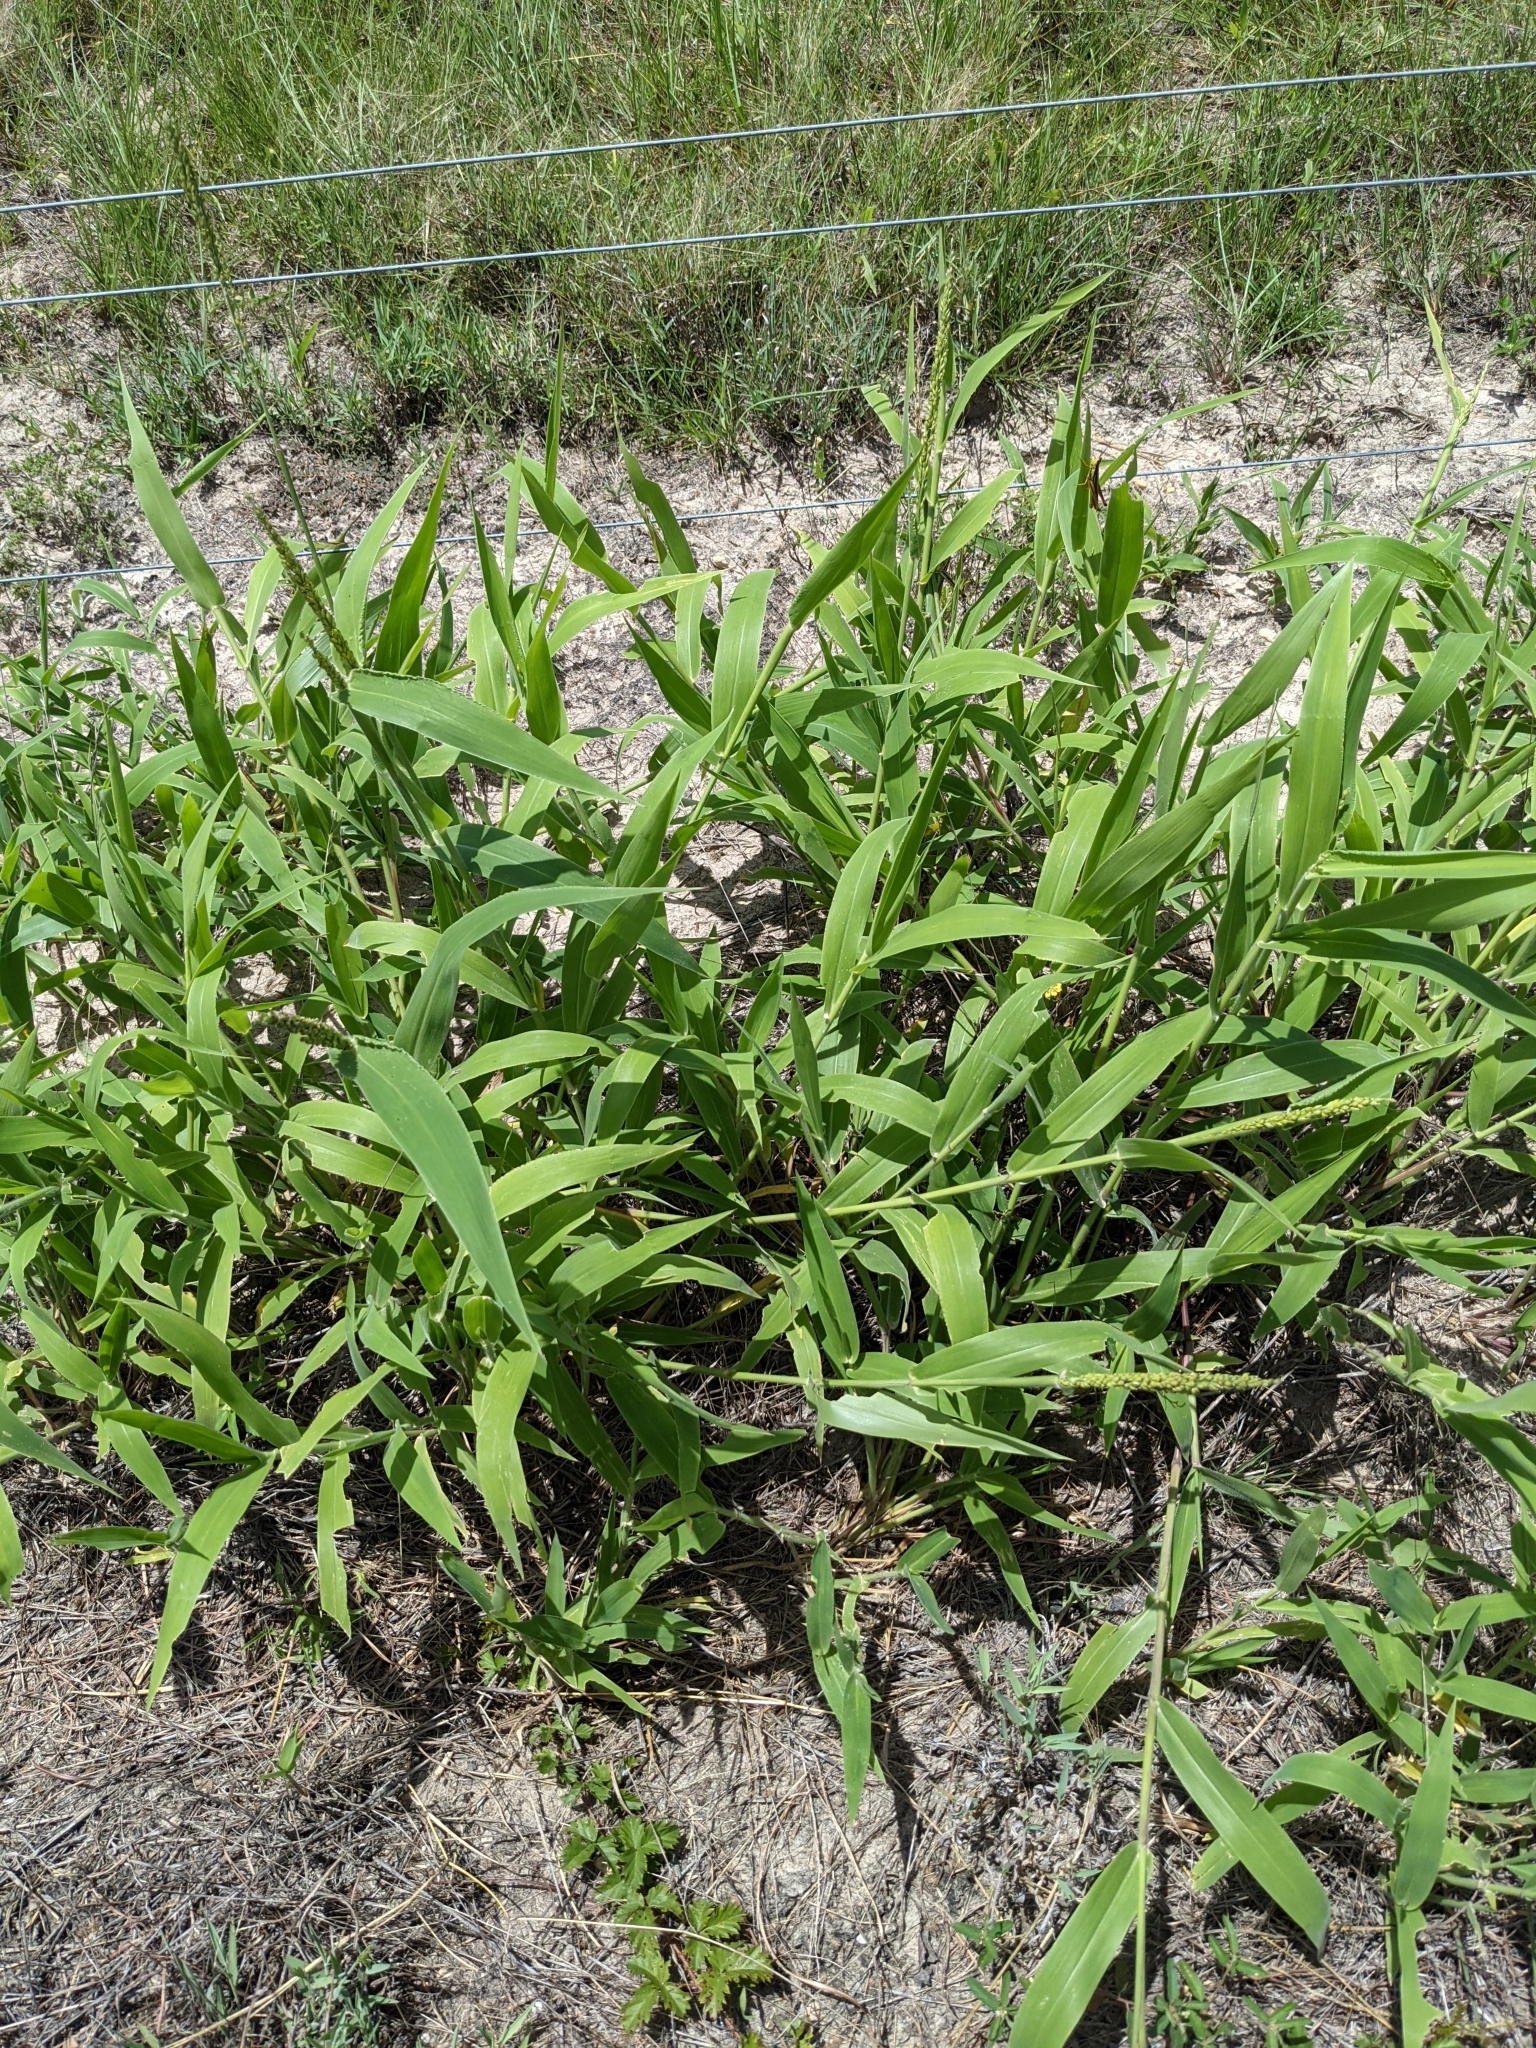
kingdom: Plantae
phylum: Tracheophyta
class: Liliopsida
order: Poales
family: Poaceae
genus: Urochloa
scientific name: Urochloa texana
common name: Texas millet
